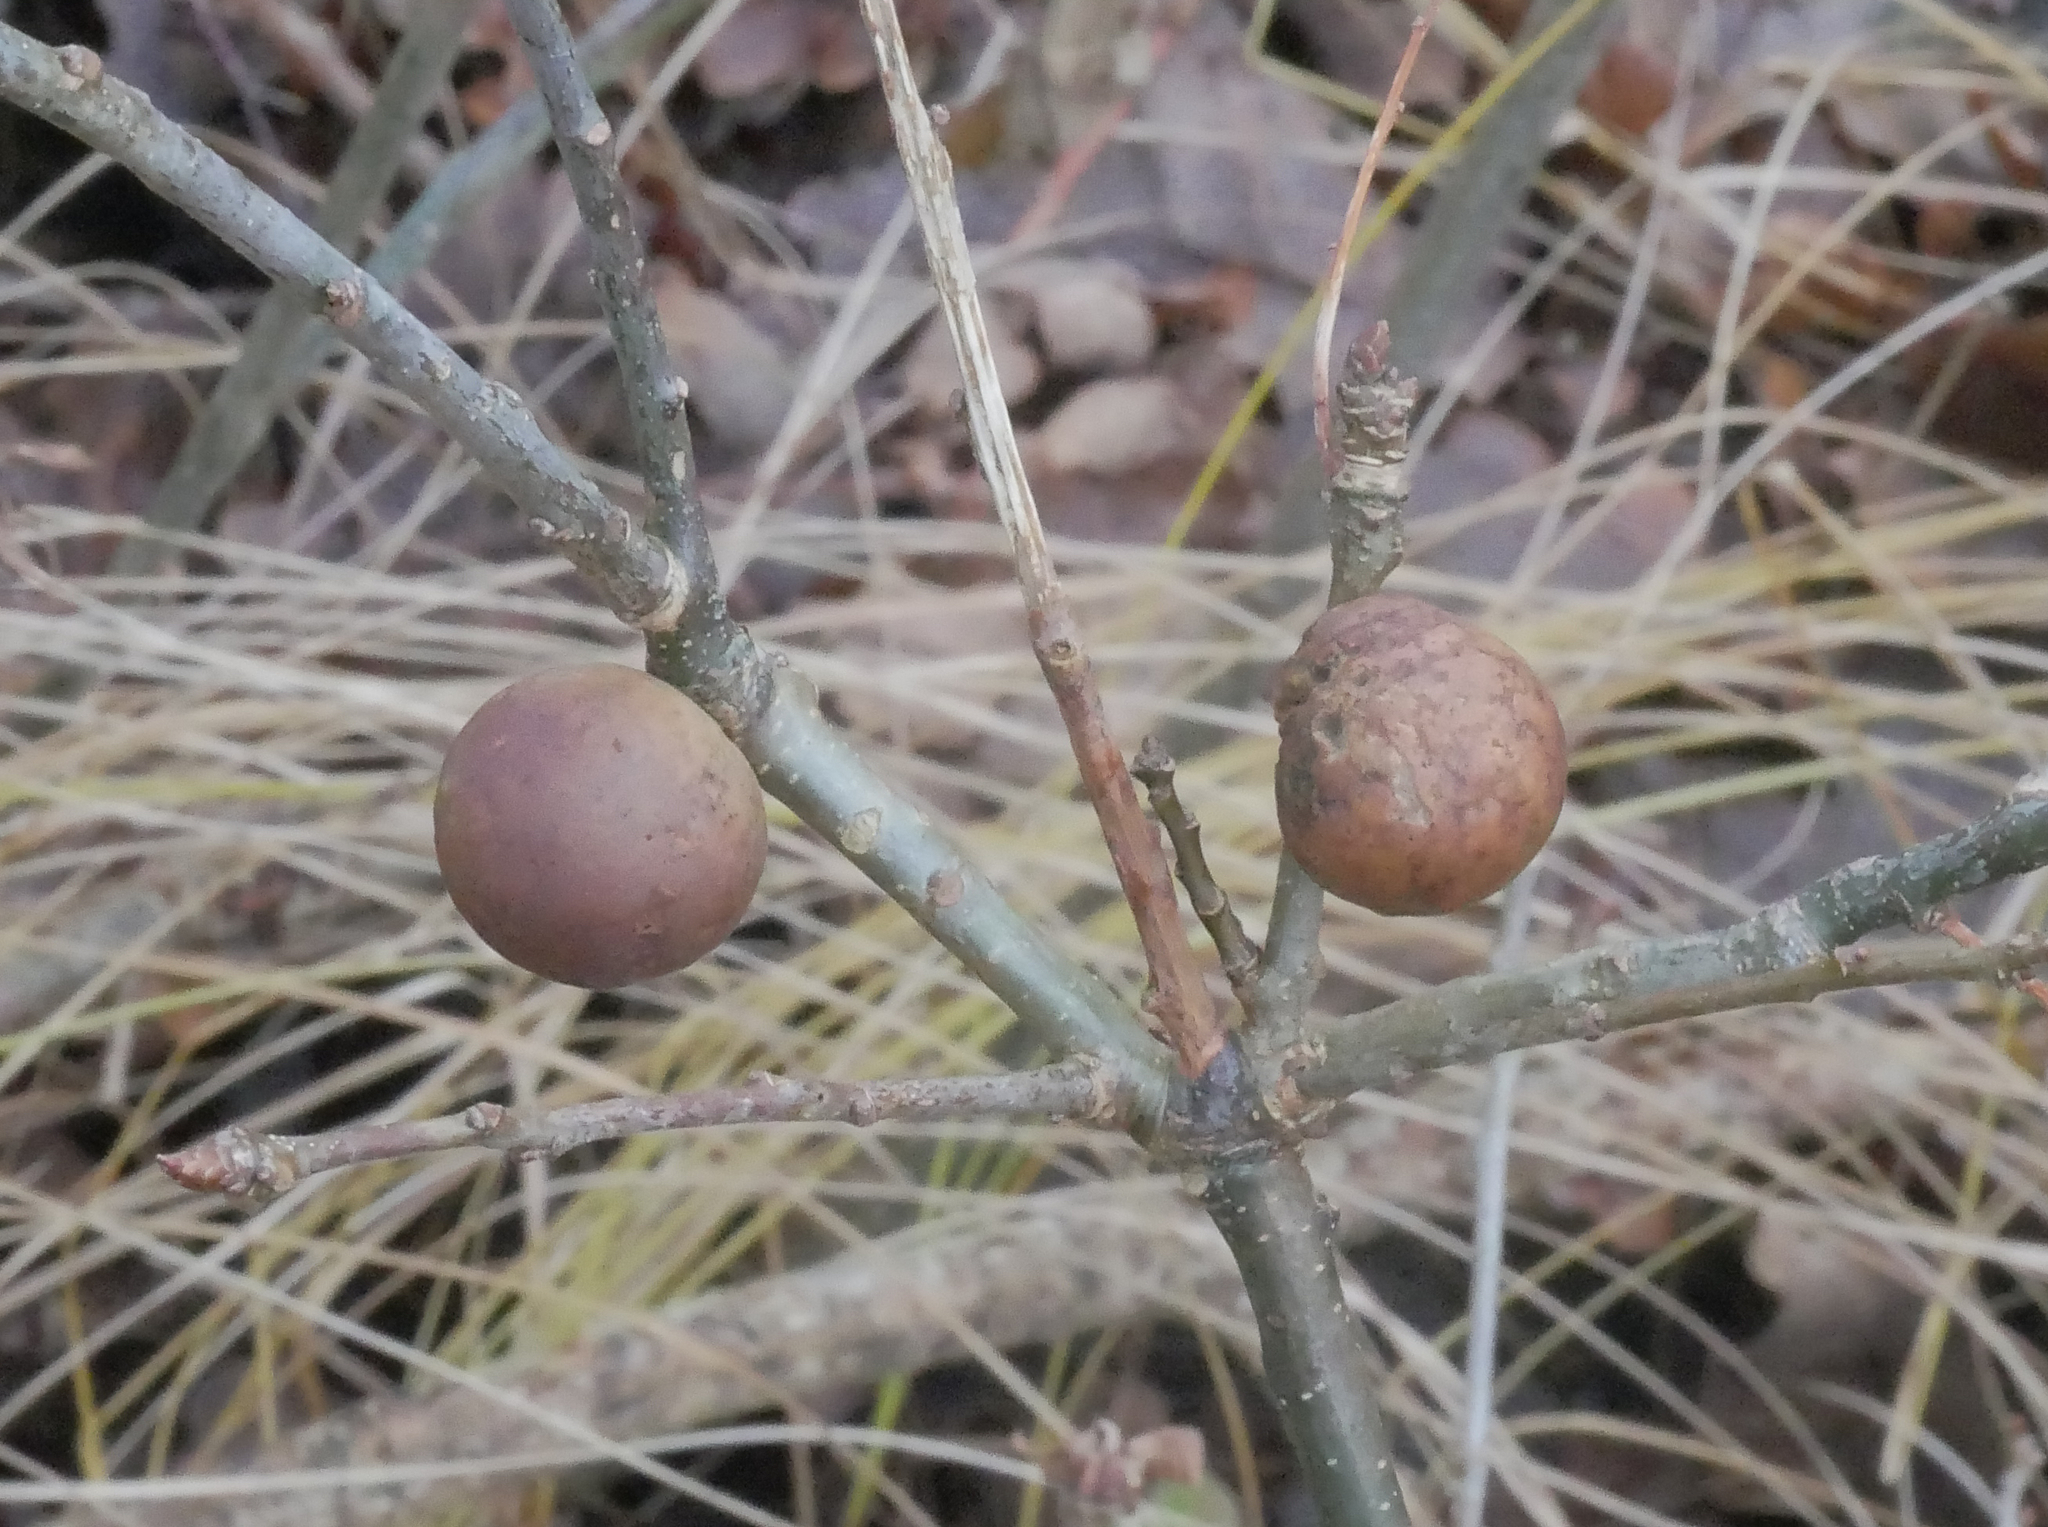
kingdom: Animalia
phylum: Arthropoda
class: Insecta
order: Hymenoptera
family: Cynipidae
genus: Andricus
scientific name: Andricus kollari
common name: Marble gall
